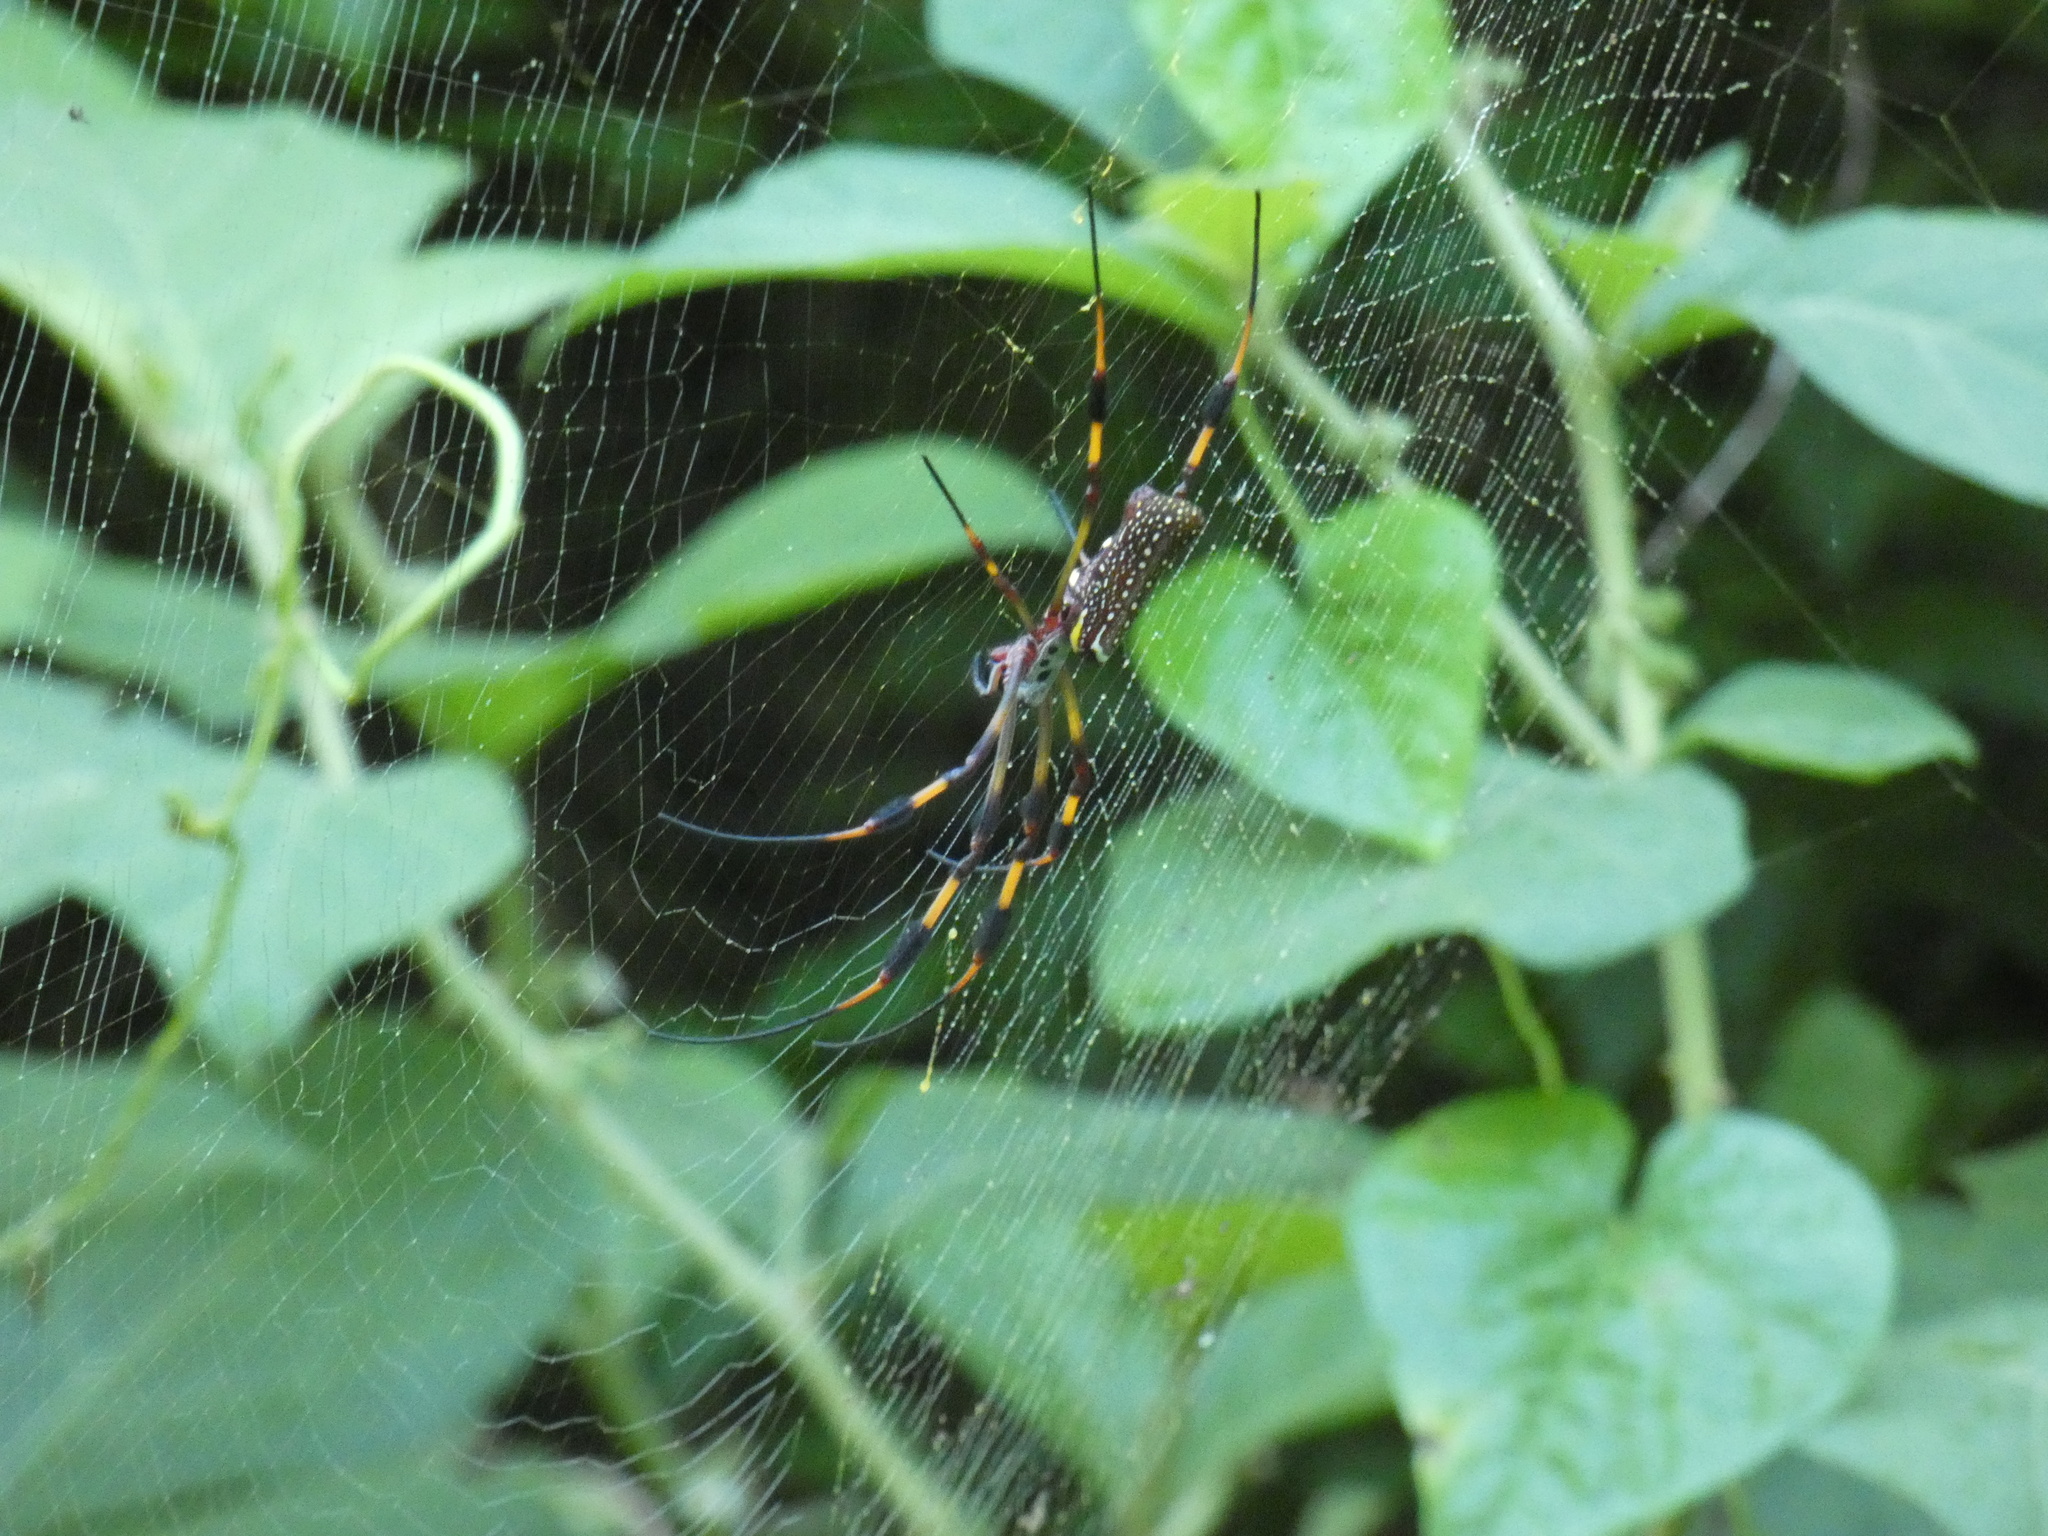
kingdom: Animalia
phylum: Arthropoda
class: Arachnida
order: Araneae
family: Araneidae
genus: Trichonephila
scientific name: Trichonephila clavipes
